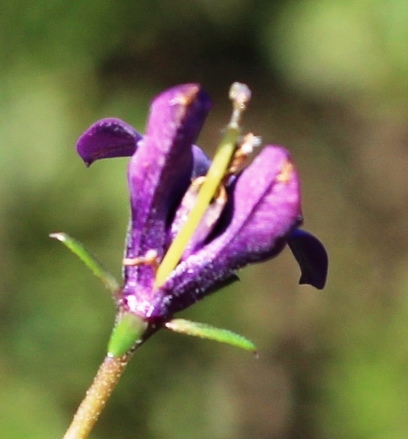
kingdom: Plantae
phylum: Tracheophyta
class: Magnoliopsida
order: Asterales
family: Campanulaceae
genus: Monopsis
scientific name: Monopsis unidentata
